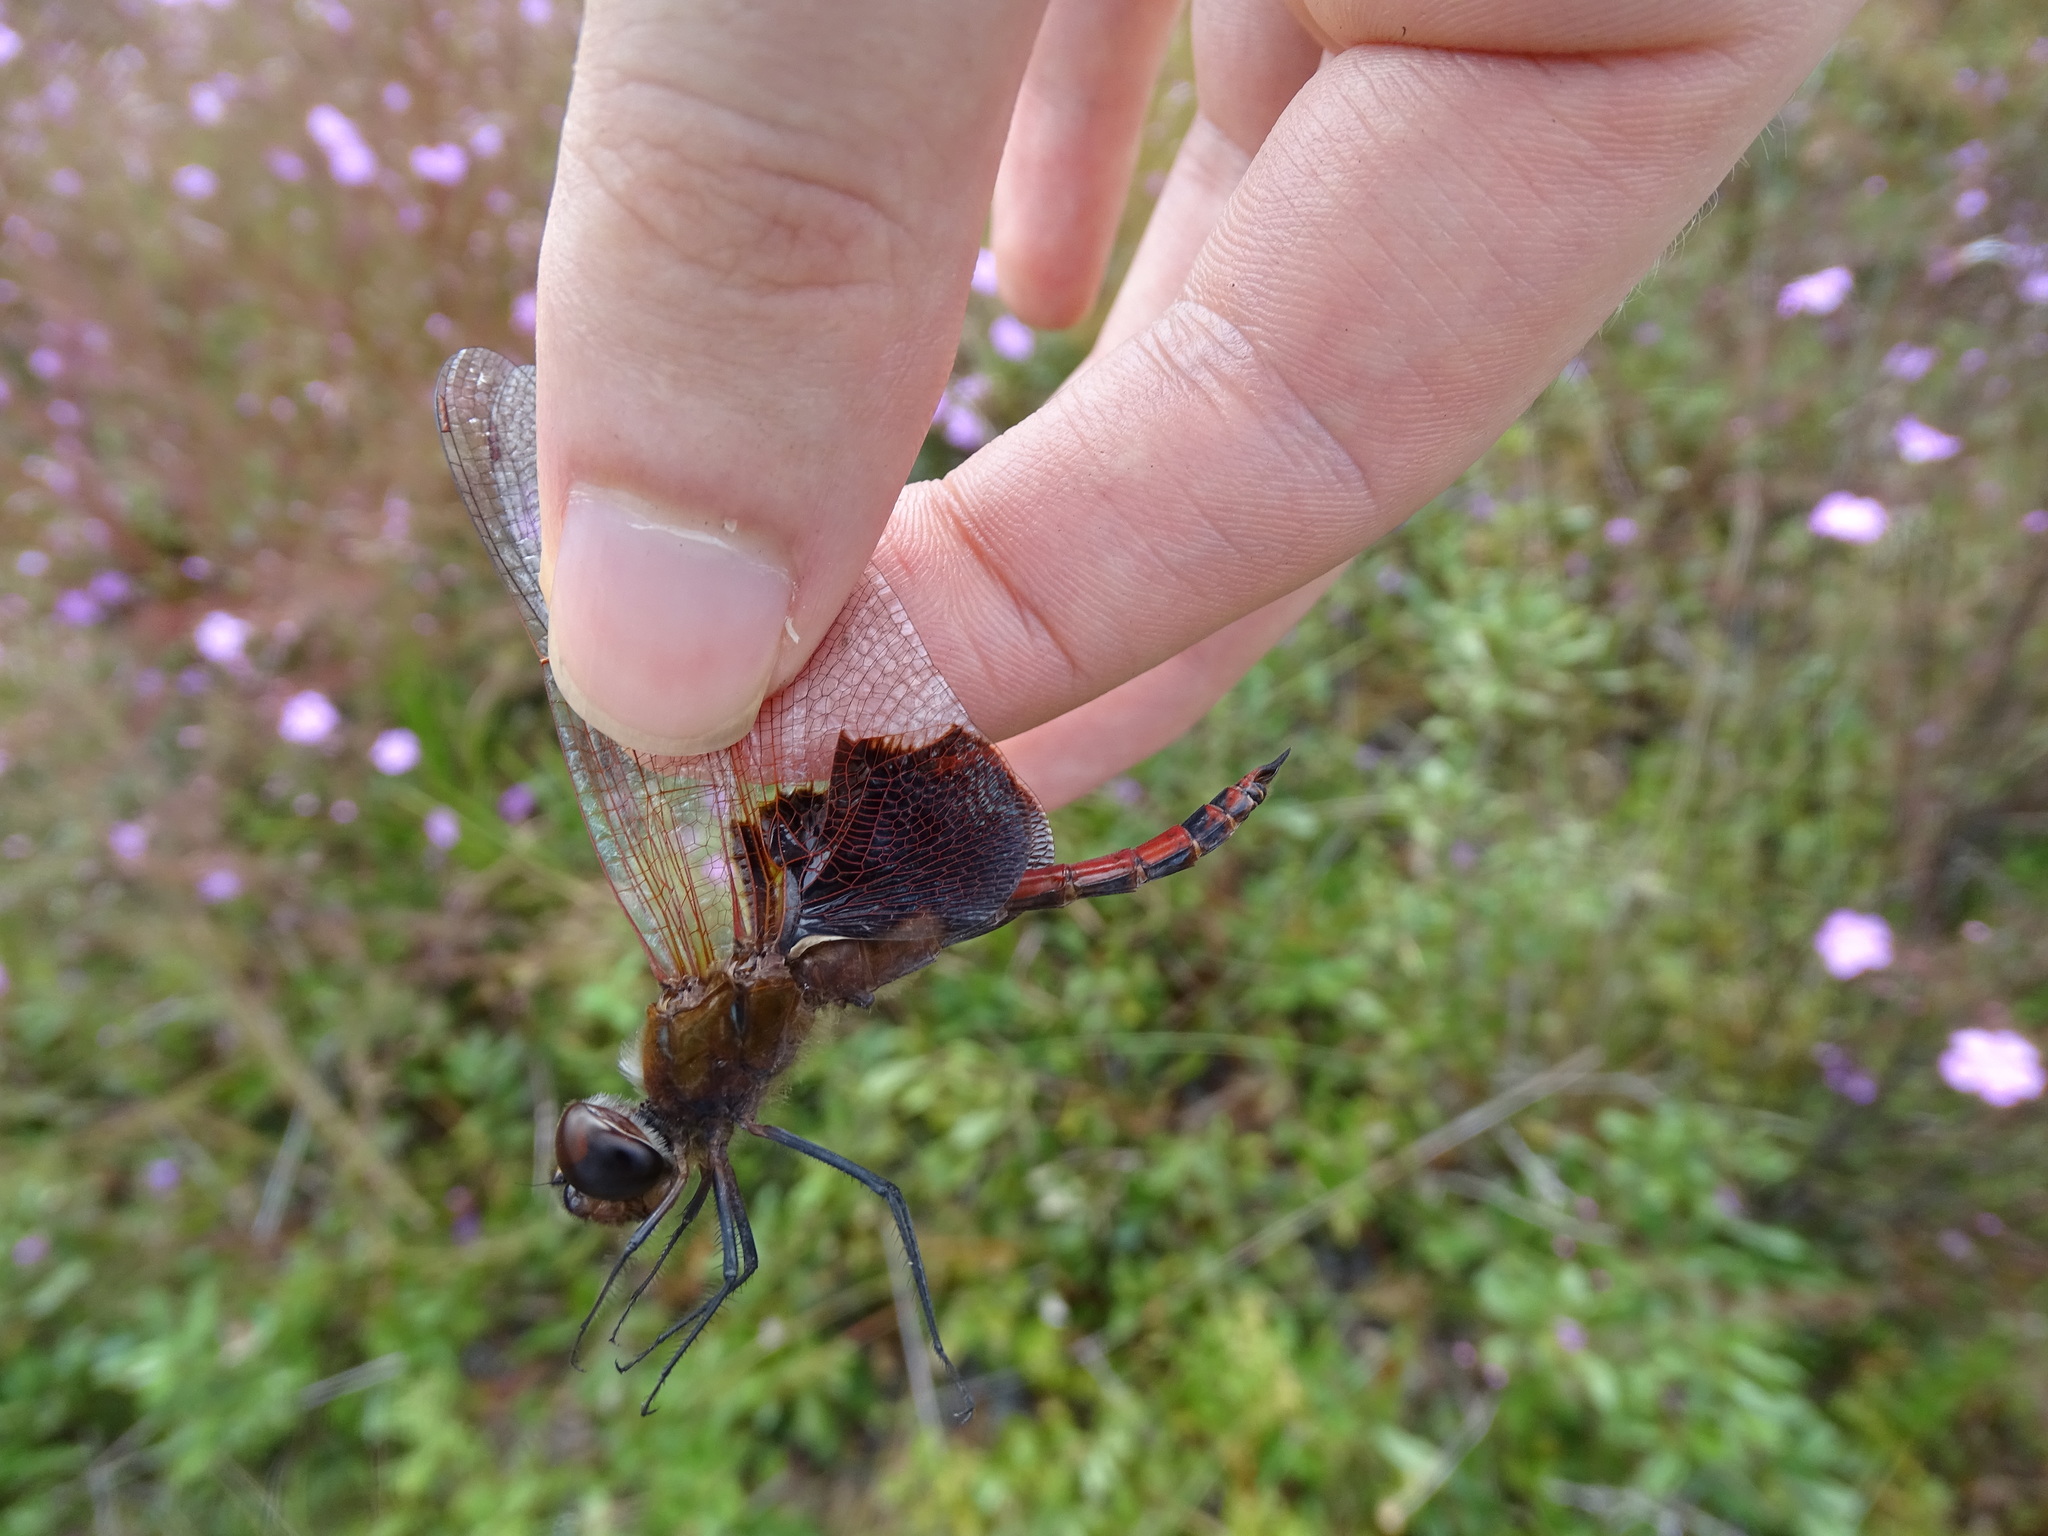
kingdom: Animalia
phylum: Arthropoda
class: Insecta
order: Odonata
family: Libellulidae
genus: Tramea
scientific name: Tramea carolina
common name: Carolina saddlebags
